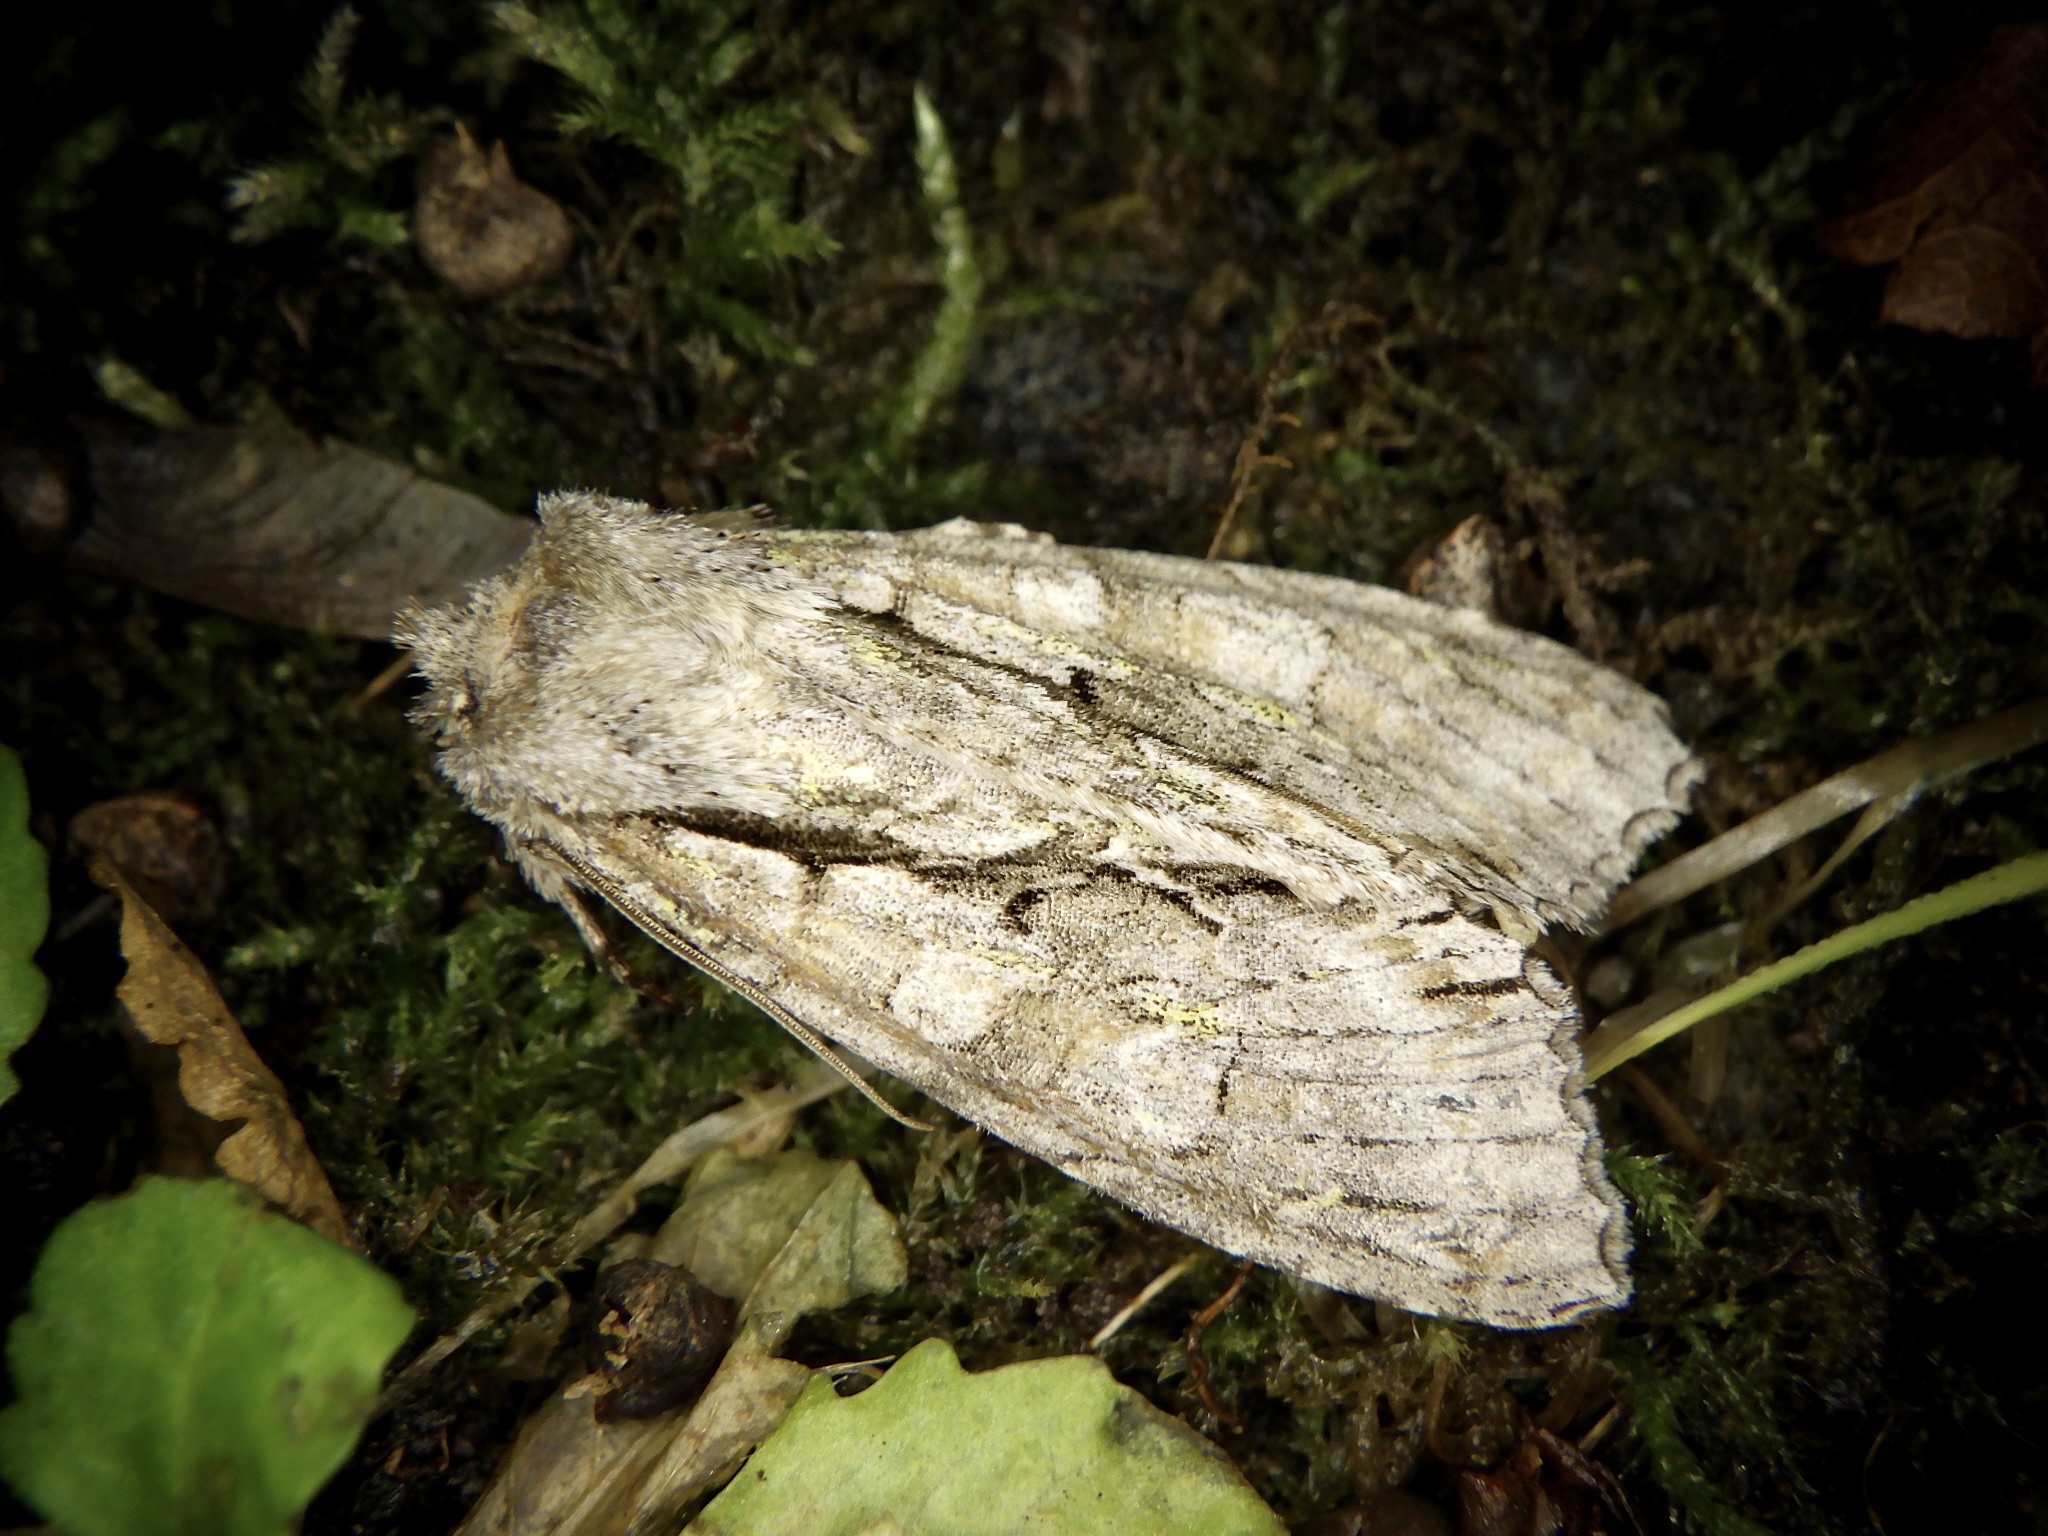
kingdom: Animalia
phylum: Arthropoda
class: Insecta
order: Lepidoptera
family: Noctuidae
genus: Meganephria
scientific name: Meganephria
